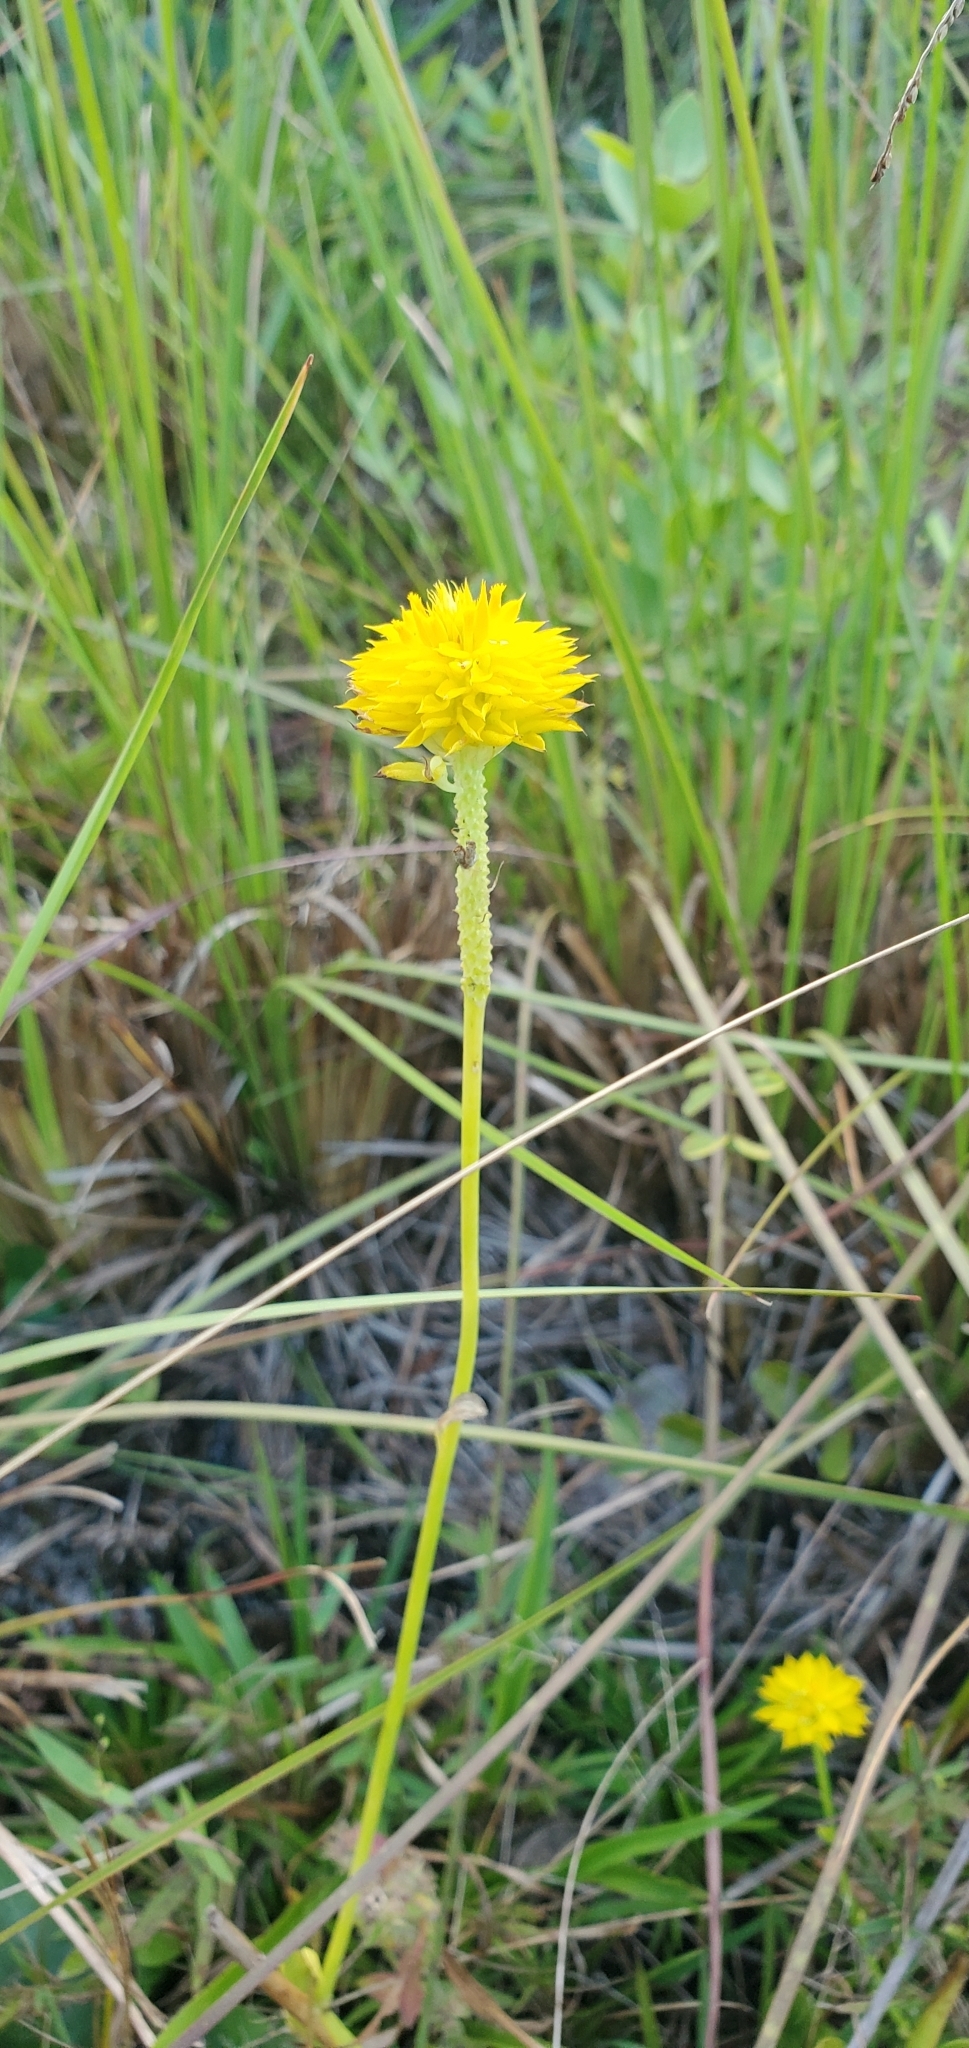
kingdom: Plantae
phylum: Tracheophyta
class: Magnoliopsida
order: Fabales
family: Polygalaceae
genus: Polygala
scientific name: Polygala rugelii
